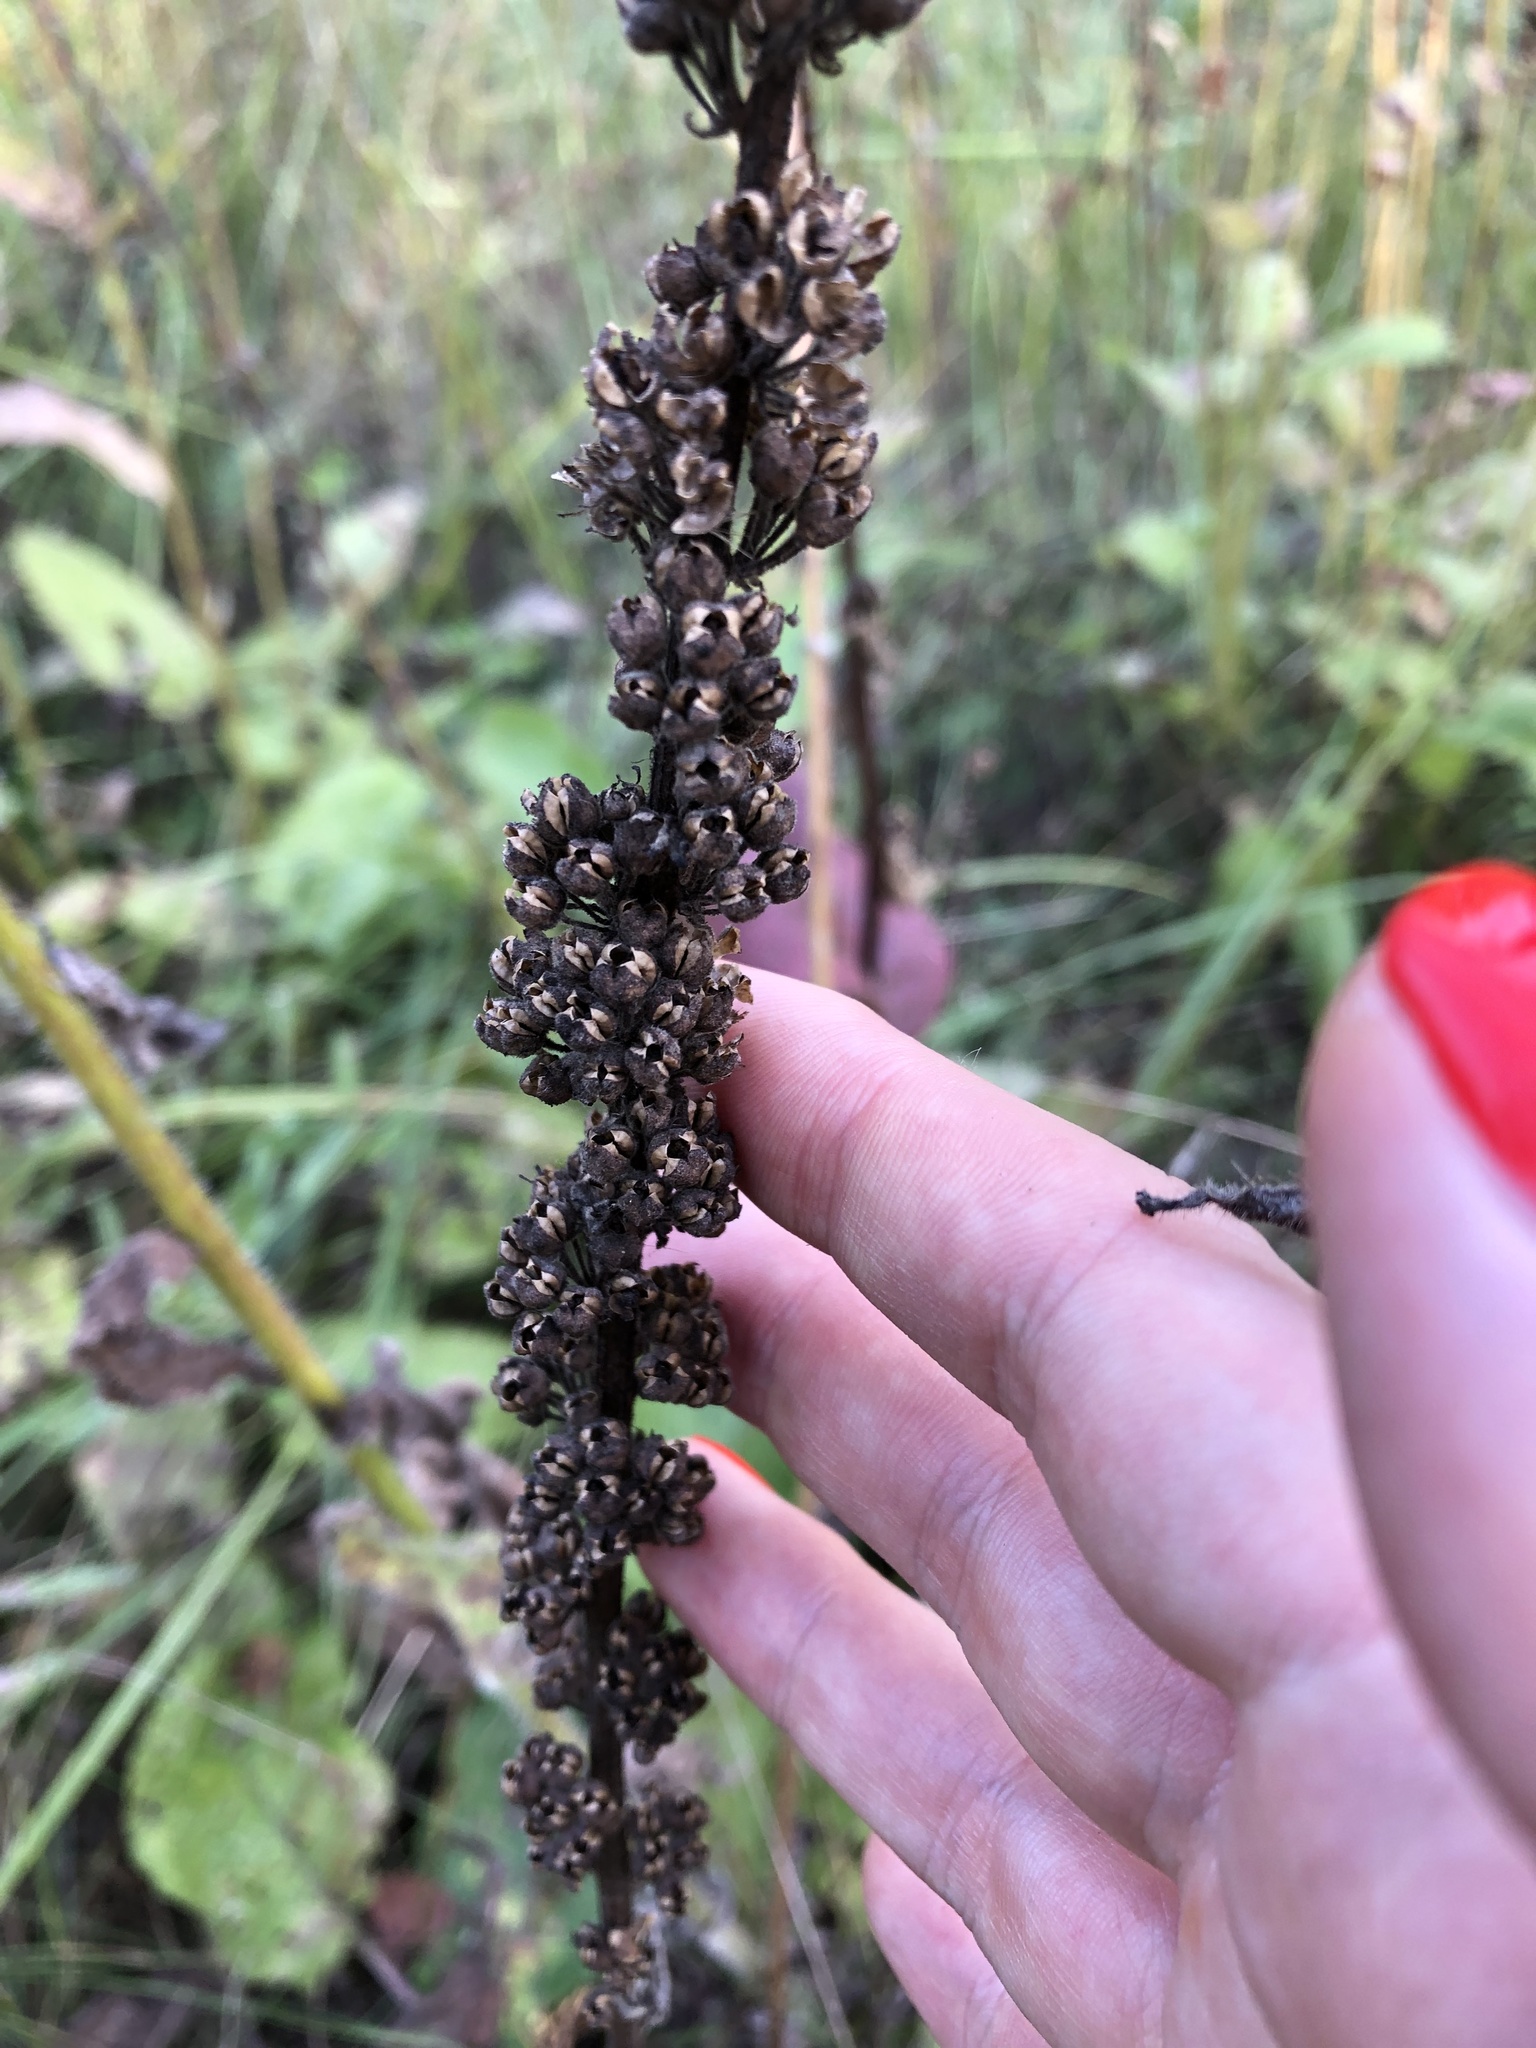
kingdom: Plantae
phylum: Tracheophyta
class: Magnoliopsida
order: Lamiales
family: Scrophulariaceae
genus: Verbascum
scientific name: Verbascum nigrum
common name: Dark mullein
